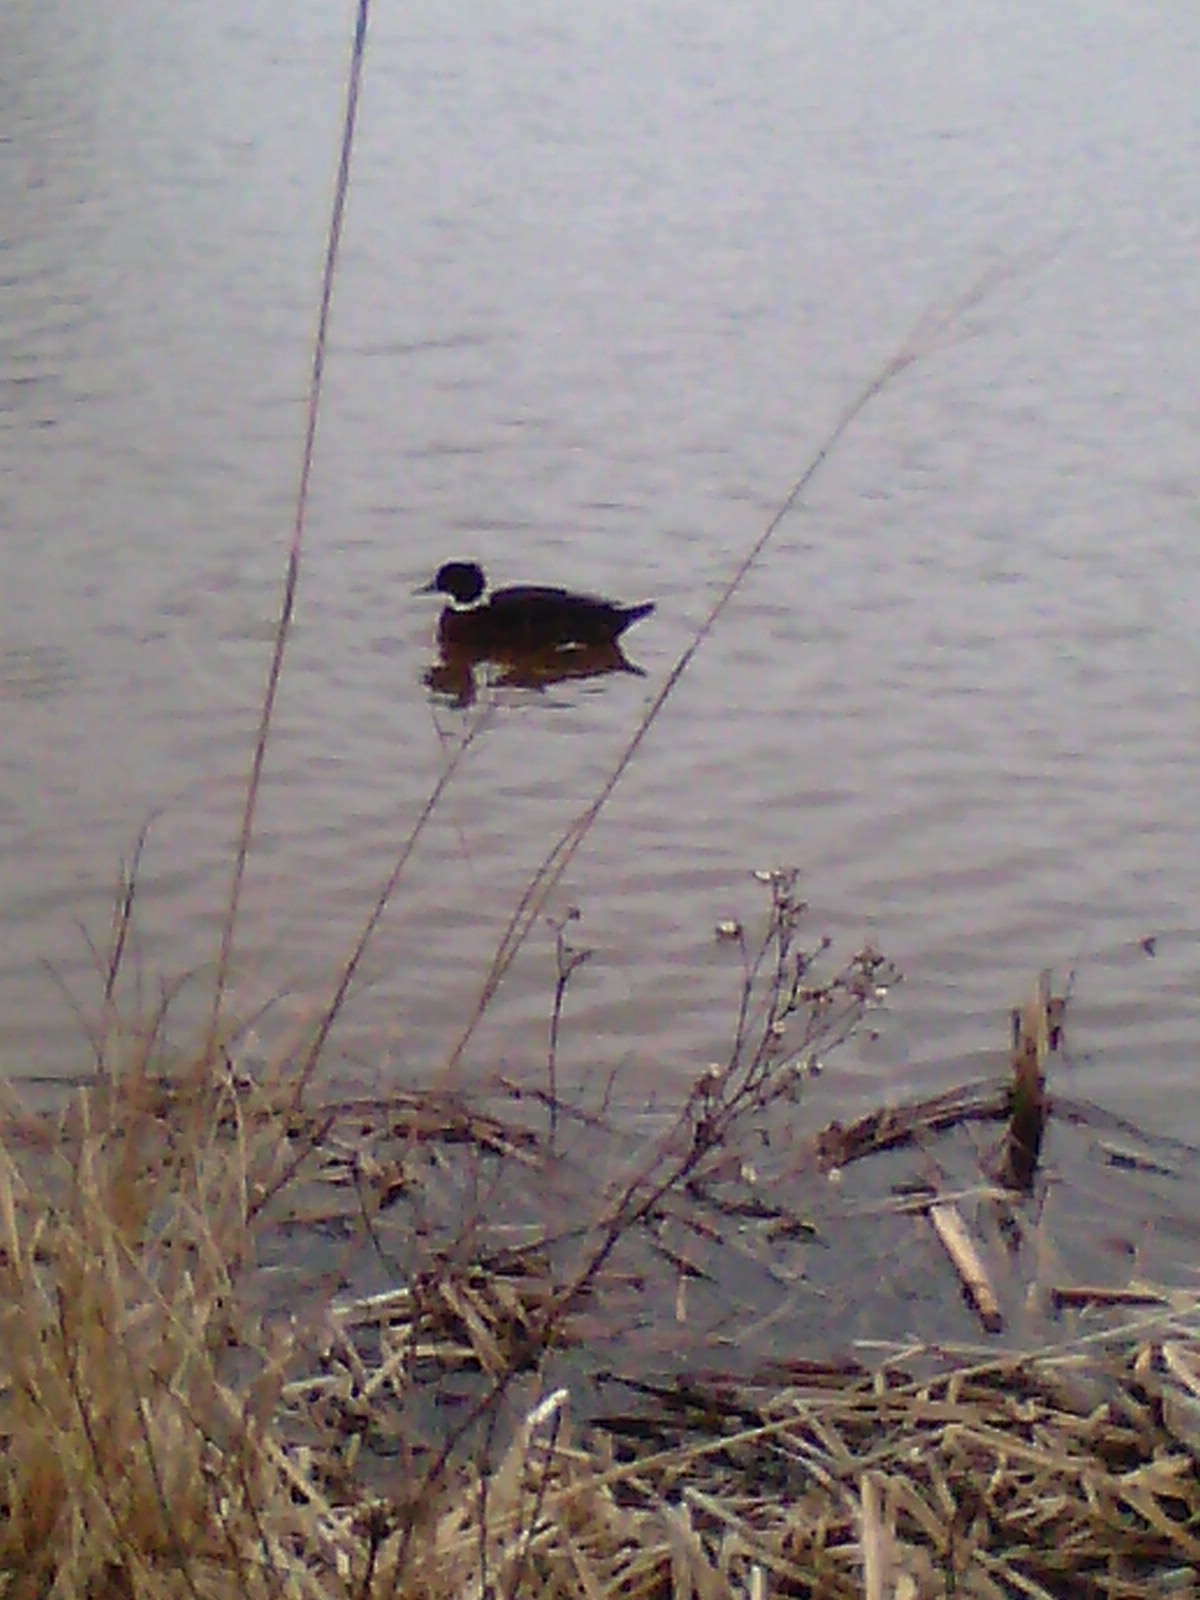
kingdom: Animalia
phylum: Chordata
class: Aves
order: Anseriformes
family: Anatidae
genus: Anas
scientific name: Anas platyrhynchos
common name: Mallard
